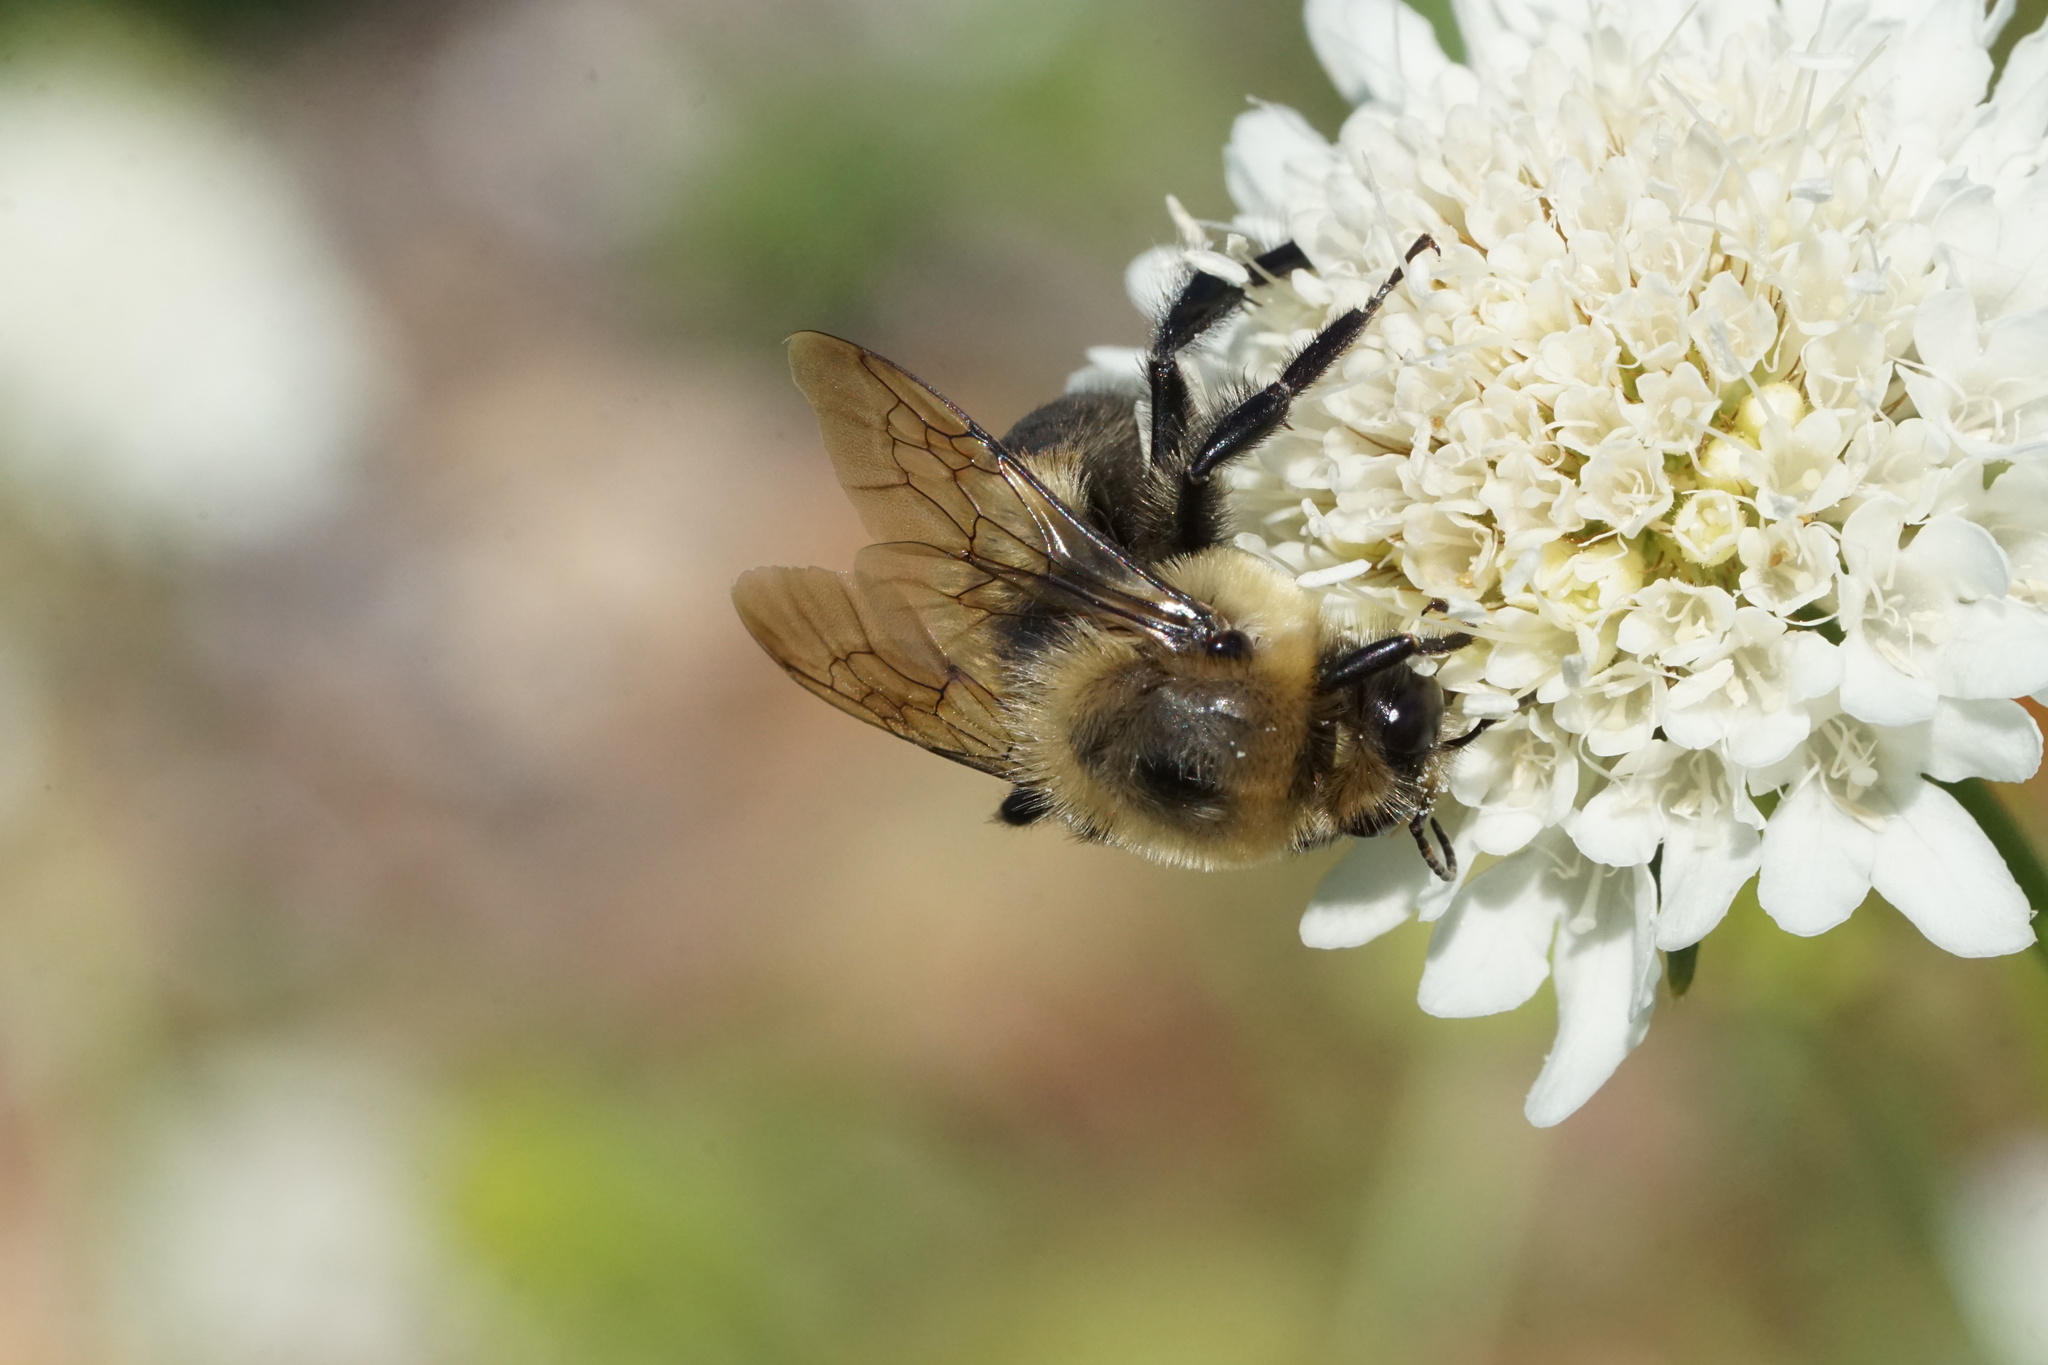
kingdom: Animalia
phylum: Arthropoda
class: Insecta
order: Hymenoptera
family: Apidae
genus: Bombus
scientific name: Bombus griseocollis
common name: Brown-belted bumble bee
